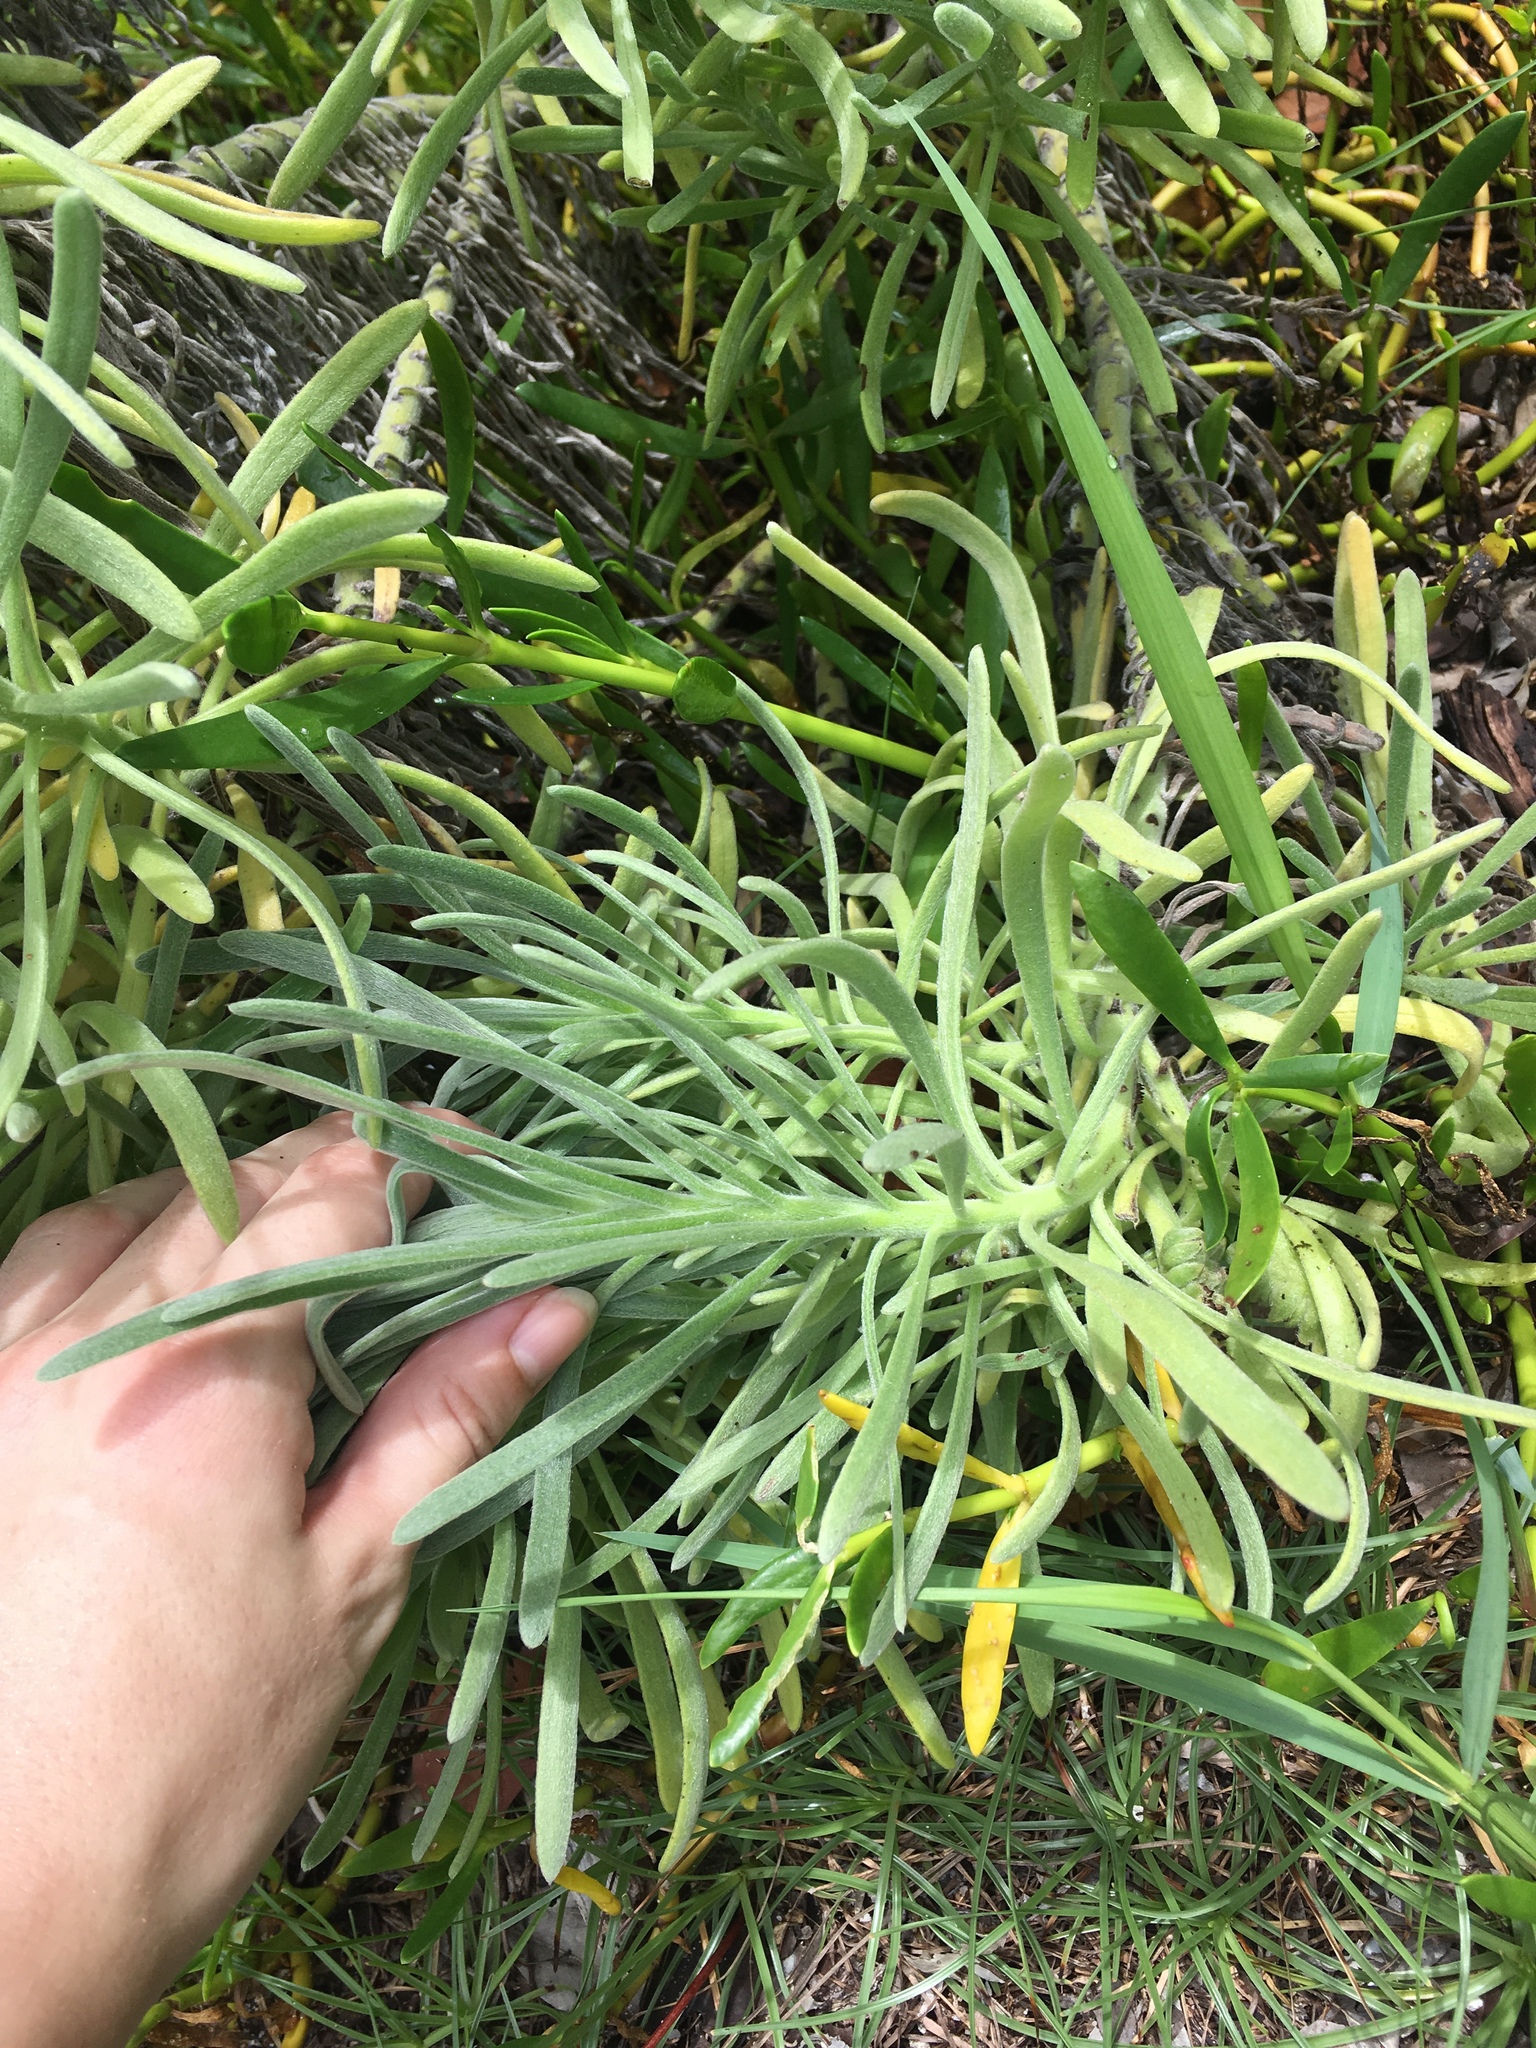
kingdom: Plantae
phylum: Tracheophyta
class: Magnoliopsida
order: Boraginales
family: Heliotropiaceae
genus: Tournefortia
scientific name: Tournefortia gnaphalodes
